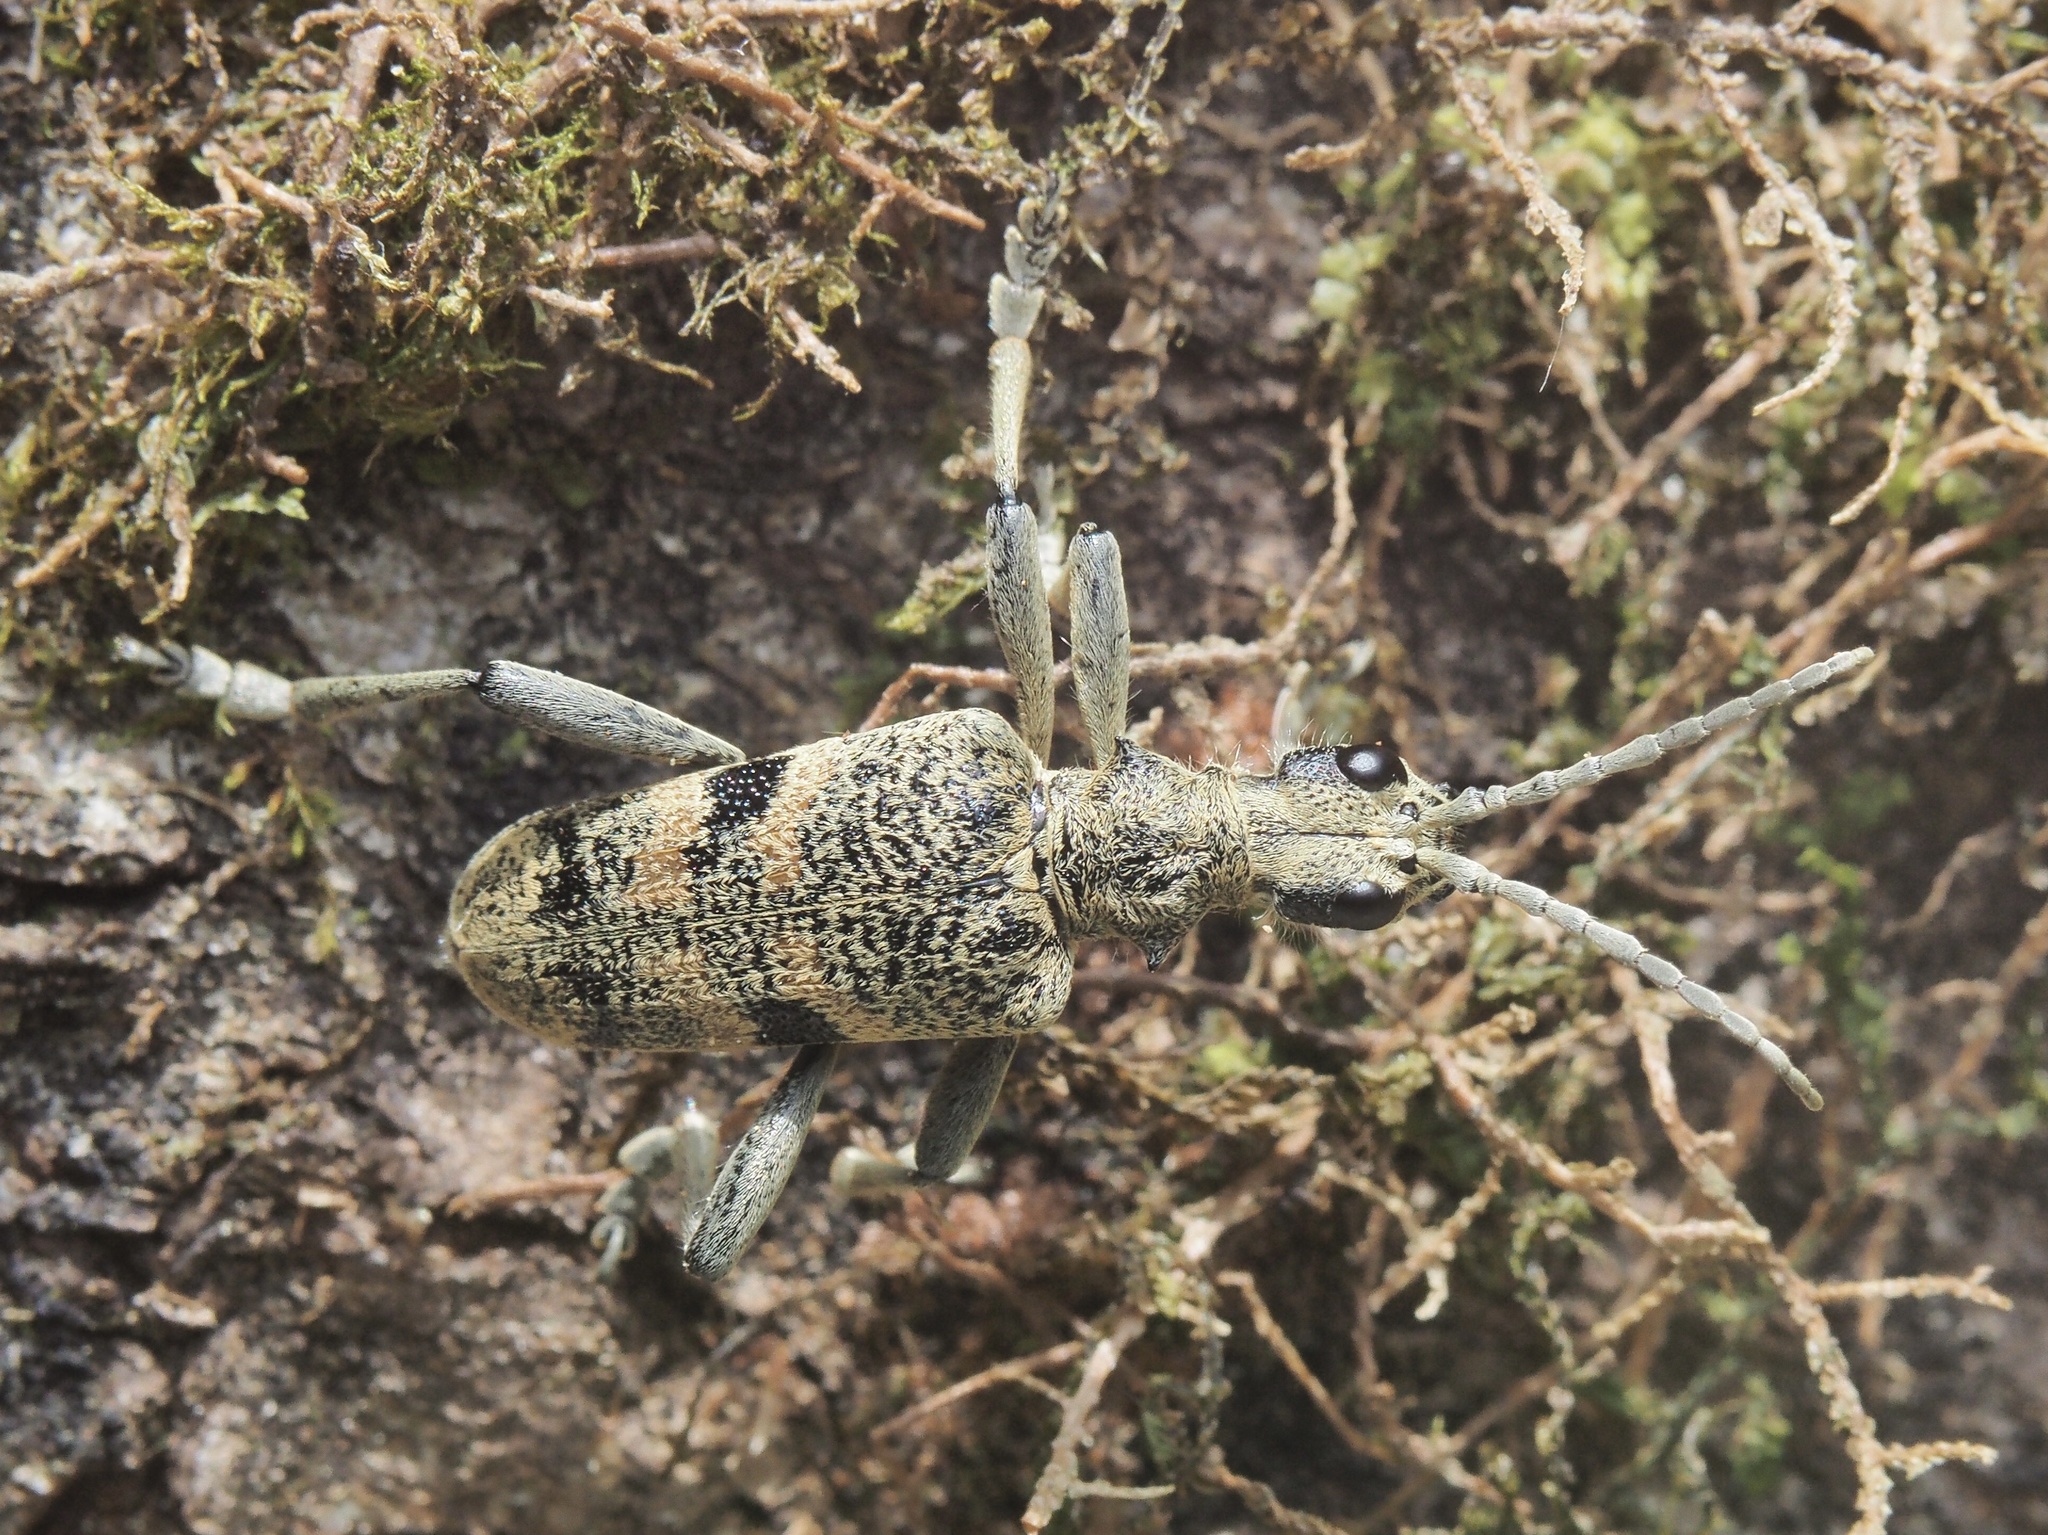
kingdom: Animalia
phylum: Arthropoda
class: Insecta
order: Coleoptera
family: Cerambycidae
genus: Rhagium
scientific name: Rhagium mordax
